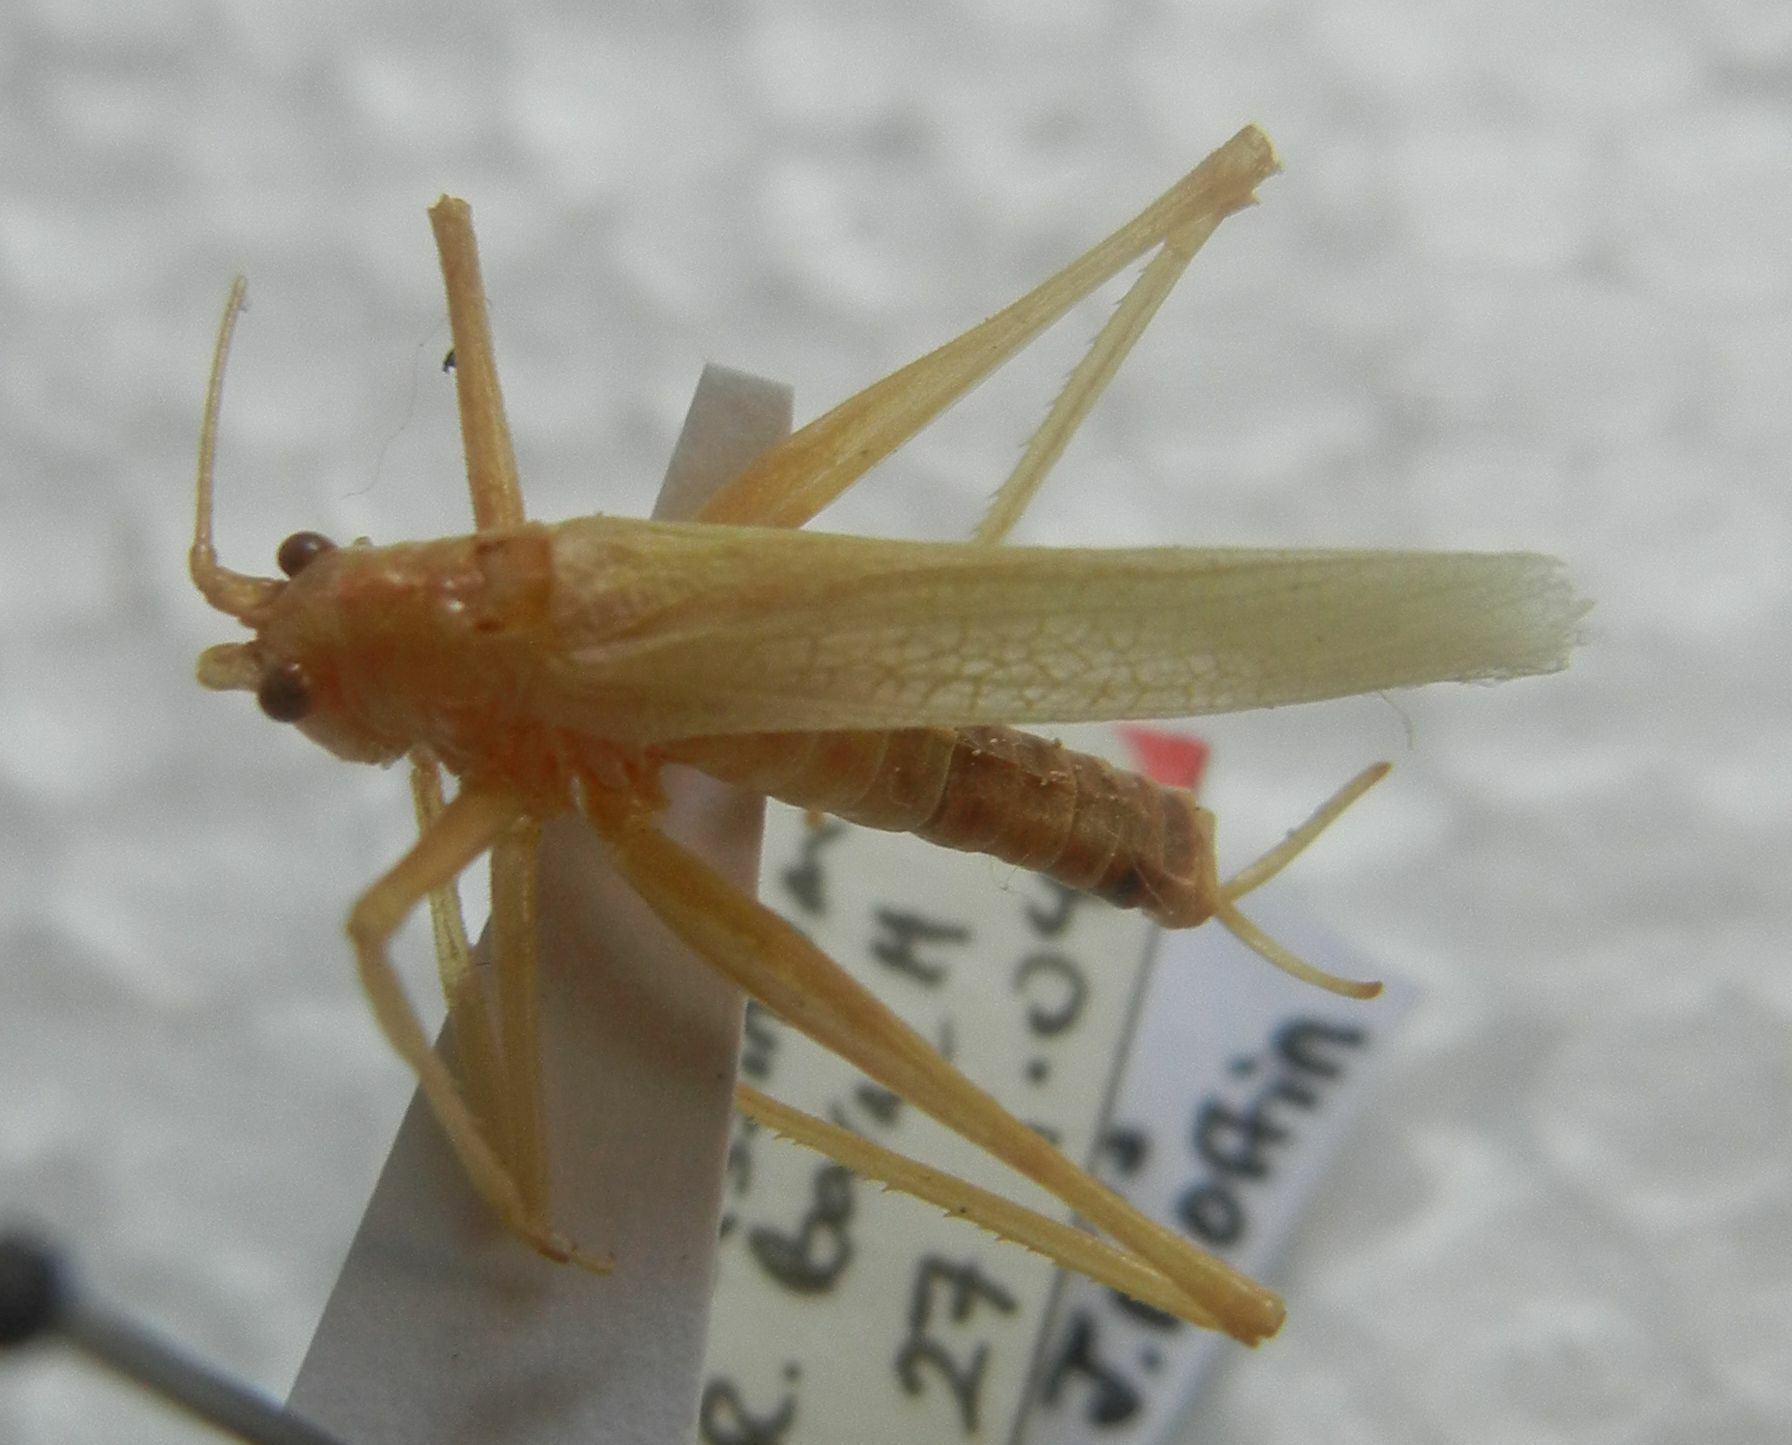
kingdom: Animalia
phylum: Arthropoda
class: Insecta
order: Orthoptera
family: Tettigoniidae
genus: Meconema
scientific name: Meconema thalassinum
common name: Oak bush-cricket
